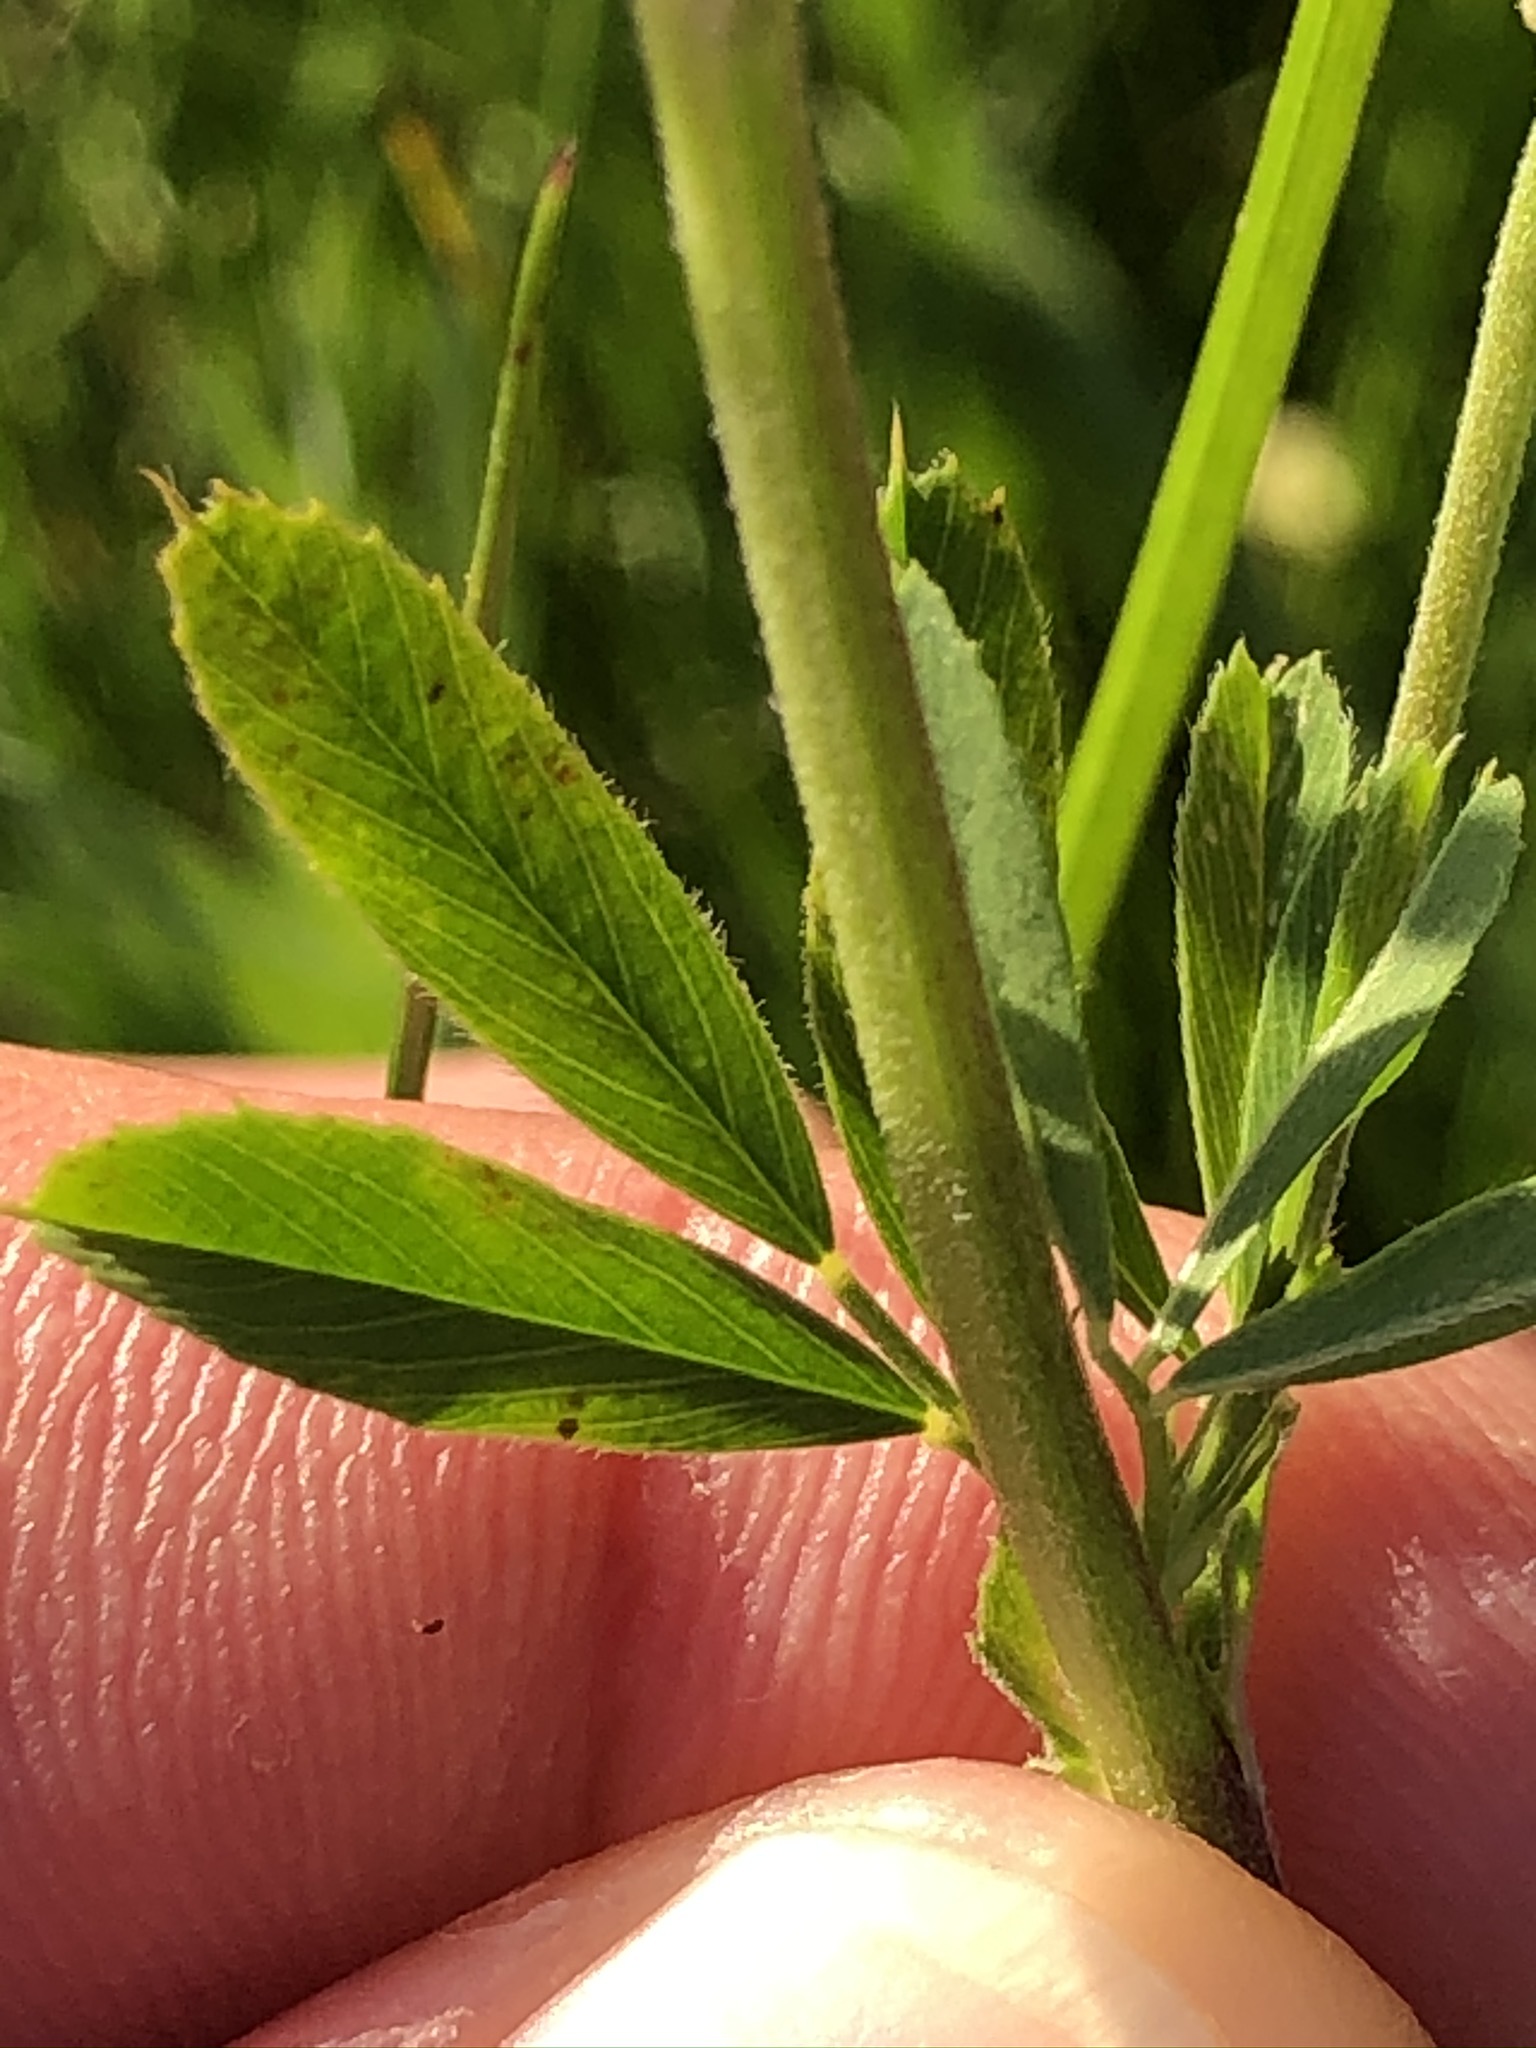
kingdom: Plantae
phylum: Tracheophyta
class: Magnoliopsida
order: Fabales
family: Fabaceae
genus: Medicago
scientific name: Medicago falcata
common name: Sickle medick
